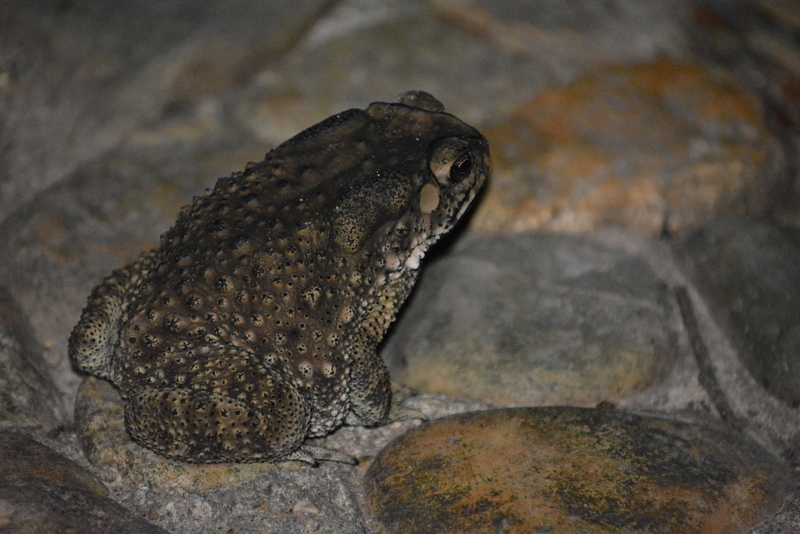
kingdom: Animalia
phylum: Chordata
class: Amphibia
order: Anura
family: Bufonidae
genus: Duttaphrynus
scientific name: Duttaphrynus melanostictus
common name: Common sunda toad
